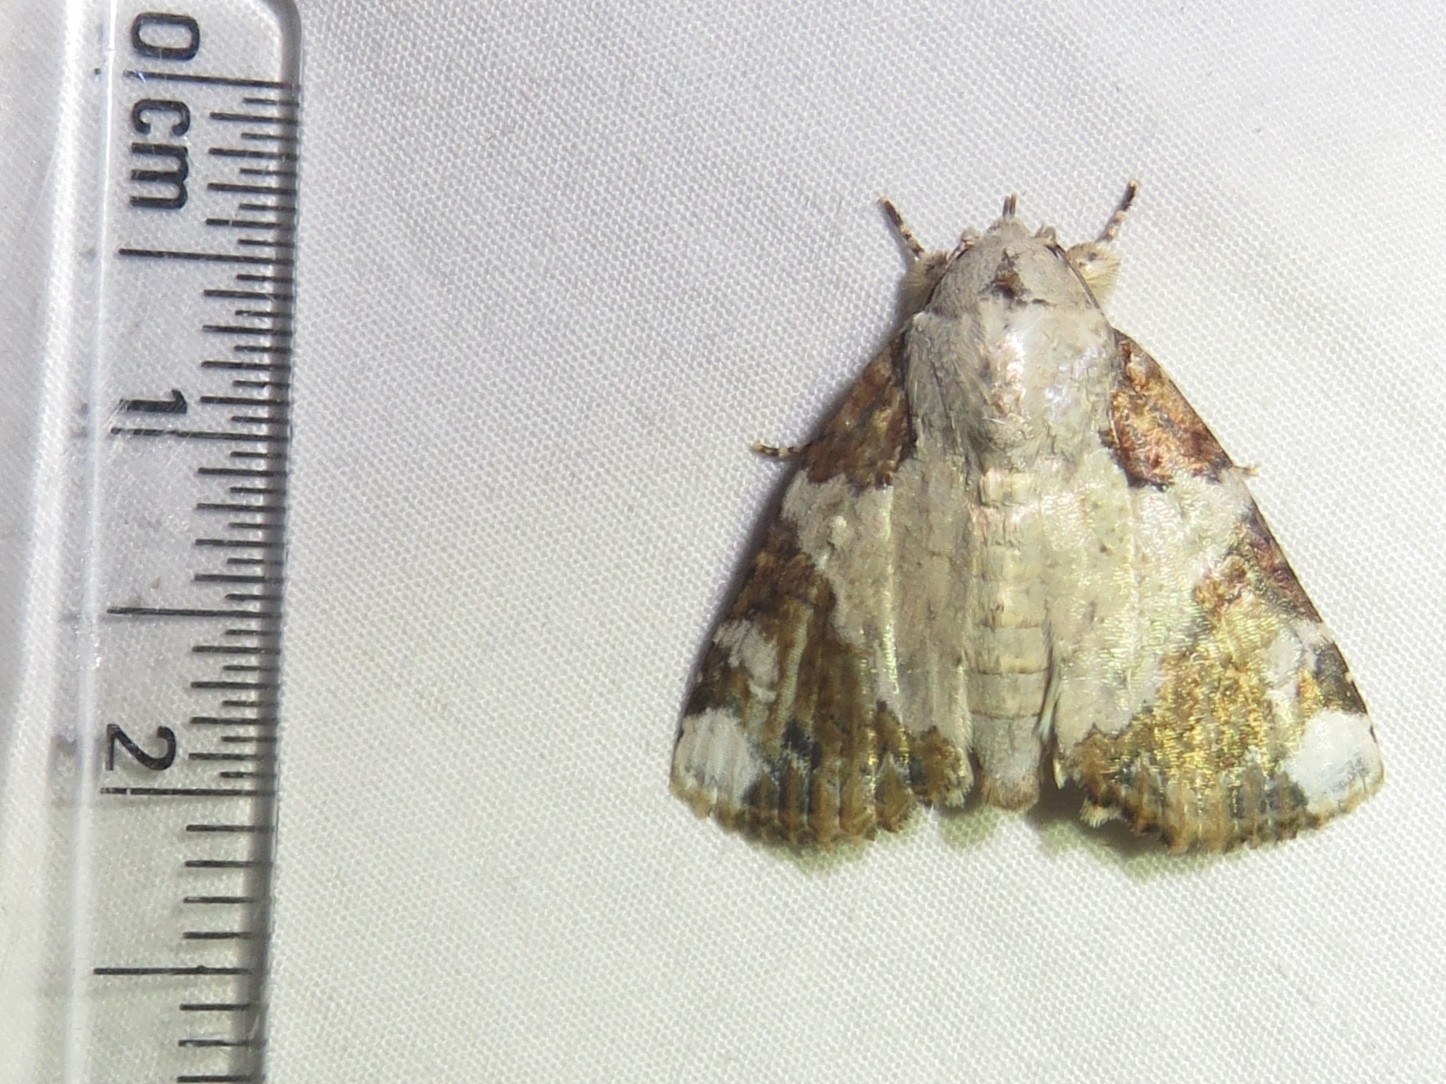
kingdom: Animalia
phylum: Arthropoda
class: Insecta
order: Lepidoptera
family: Nolidae
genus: Beana
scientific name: Beana terminigera
